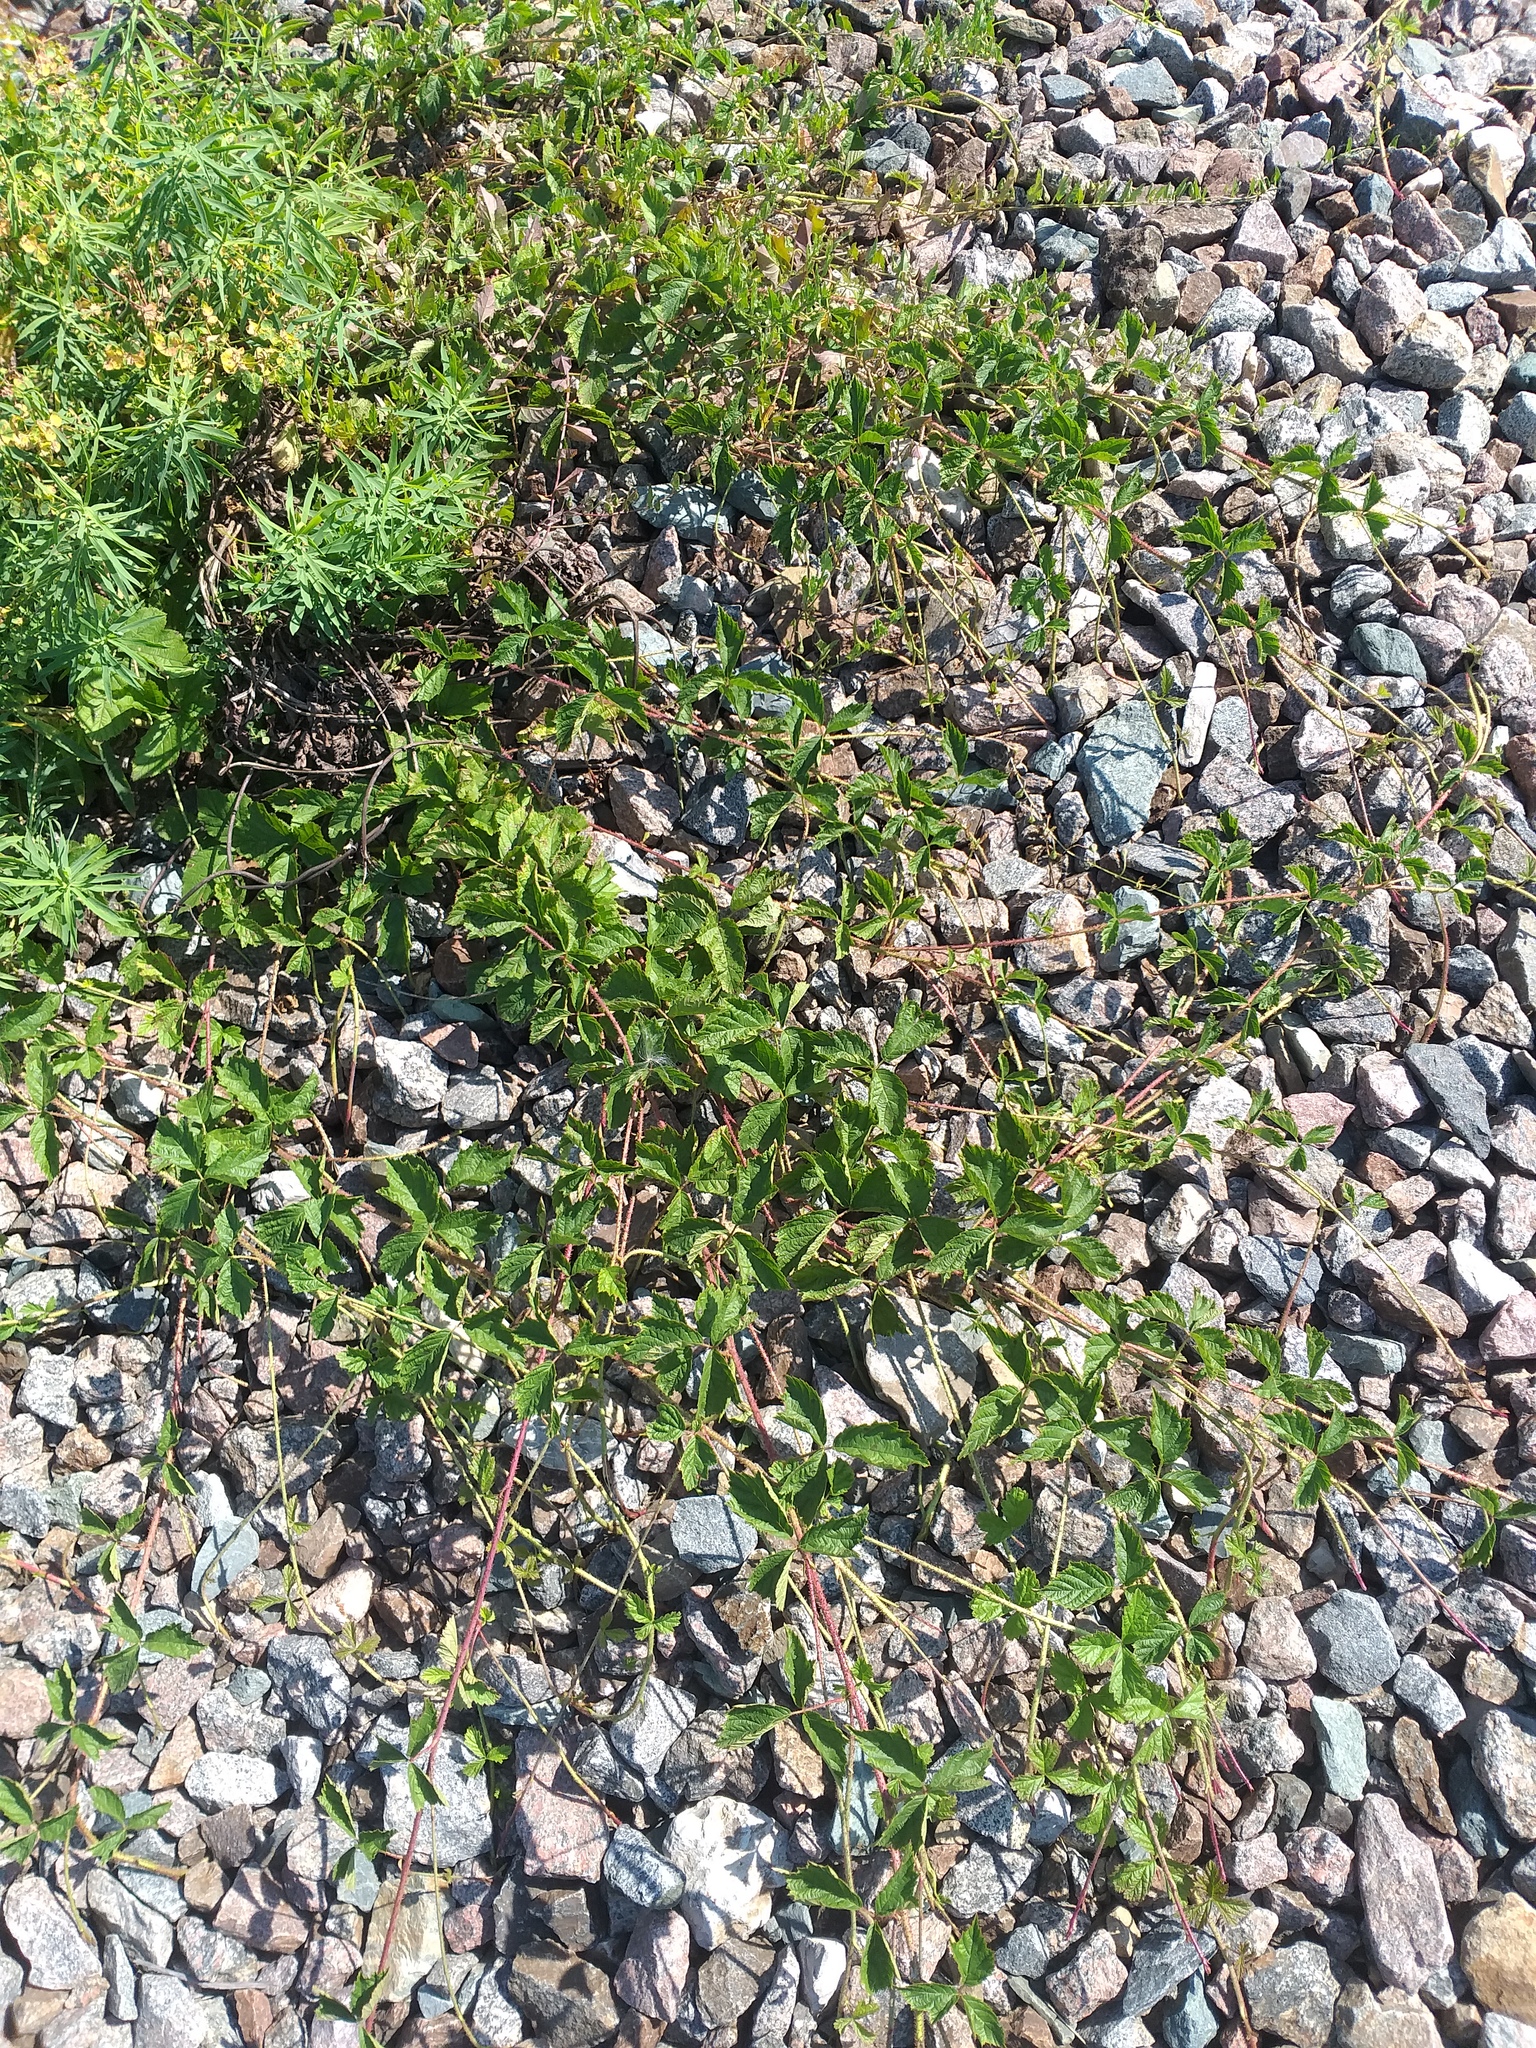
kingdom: Plantae
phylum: Tracheophyta
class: Magnoliopsida
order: Rosales
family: Rosaceae
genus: Rubus
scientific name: Rubus caesius
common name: Dewberry
